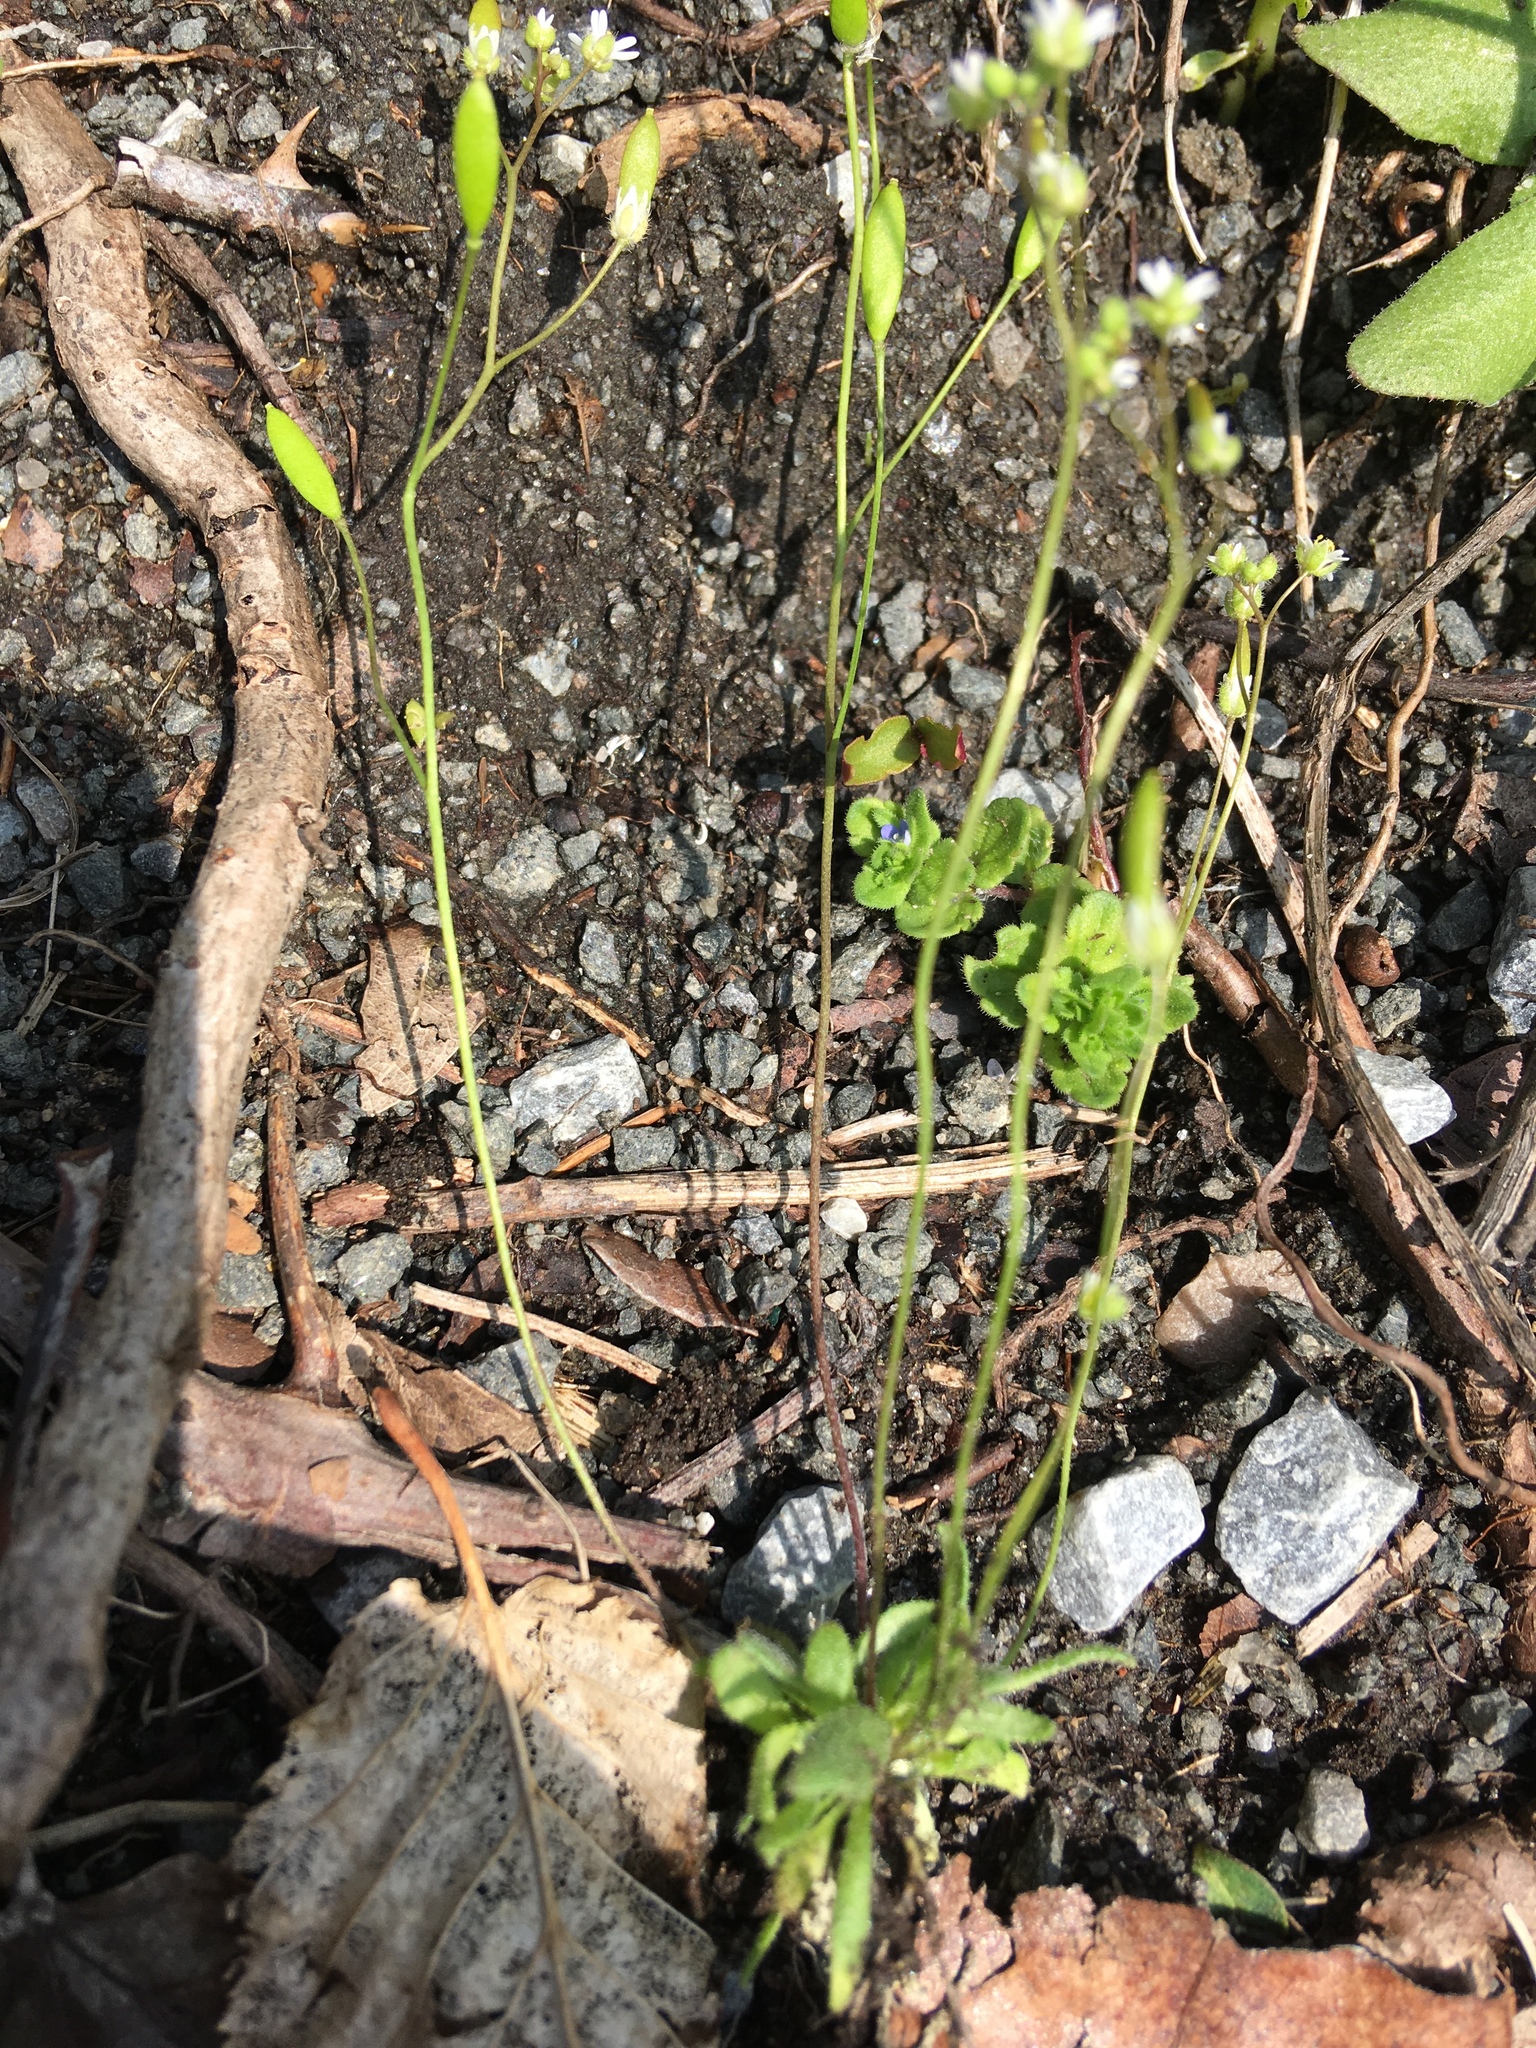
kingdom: Plantae
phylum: Tracheophyta
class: Magnoliopsida
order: Brassicales
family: Brassicaceae
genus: Draba
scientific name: Draba verna
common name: Spring draba
